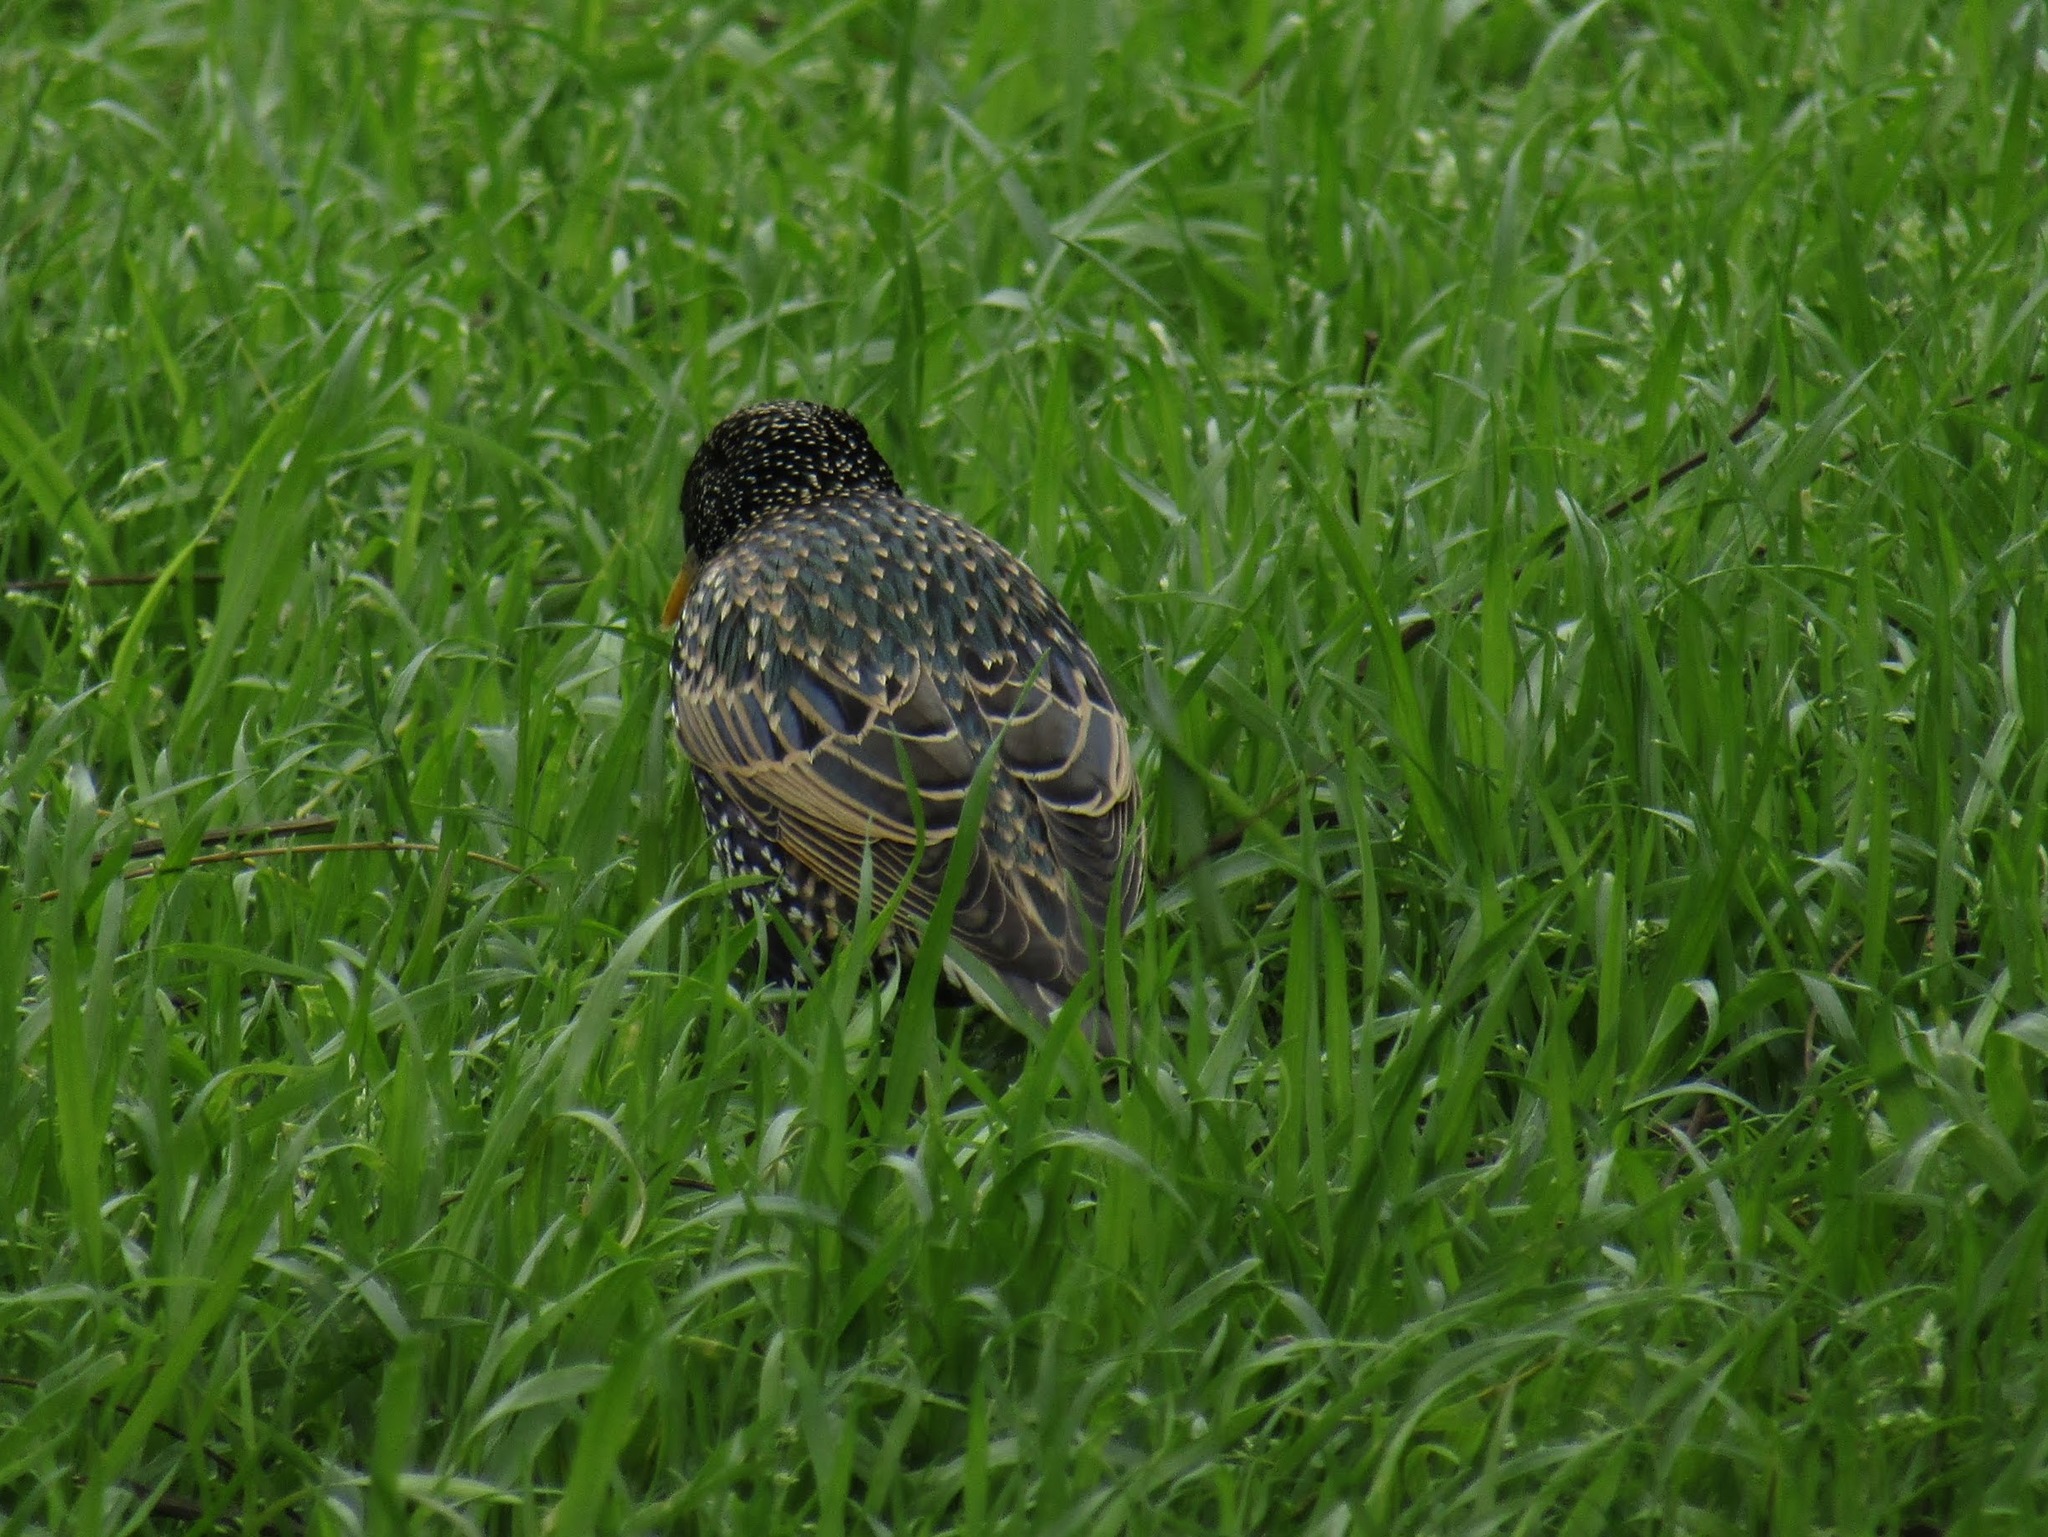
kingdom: Animalia
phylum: Chordata
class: Aves
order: Passeriformes
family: Sturnidae
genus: Sturnus
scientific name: Sturnus vulgaris
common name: Common starling
